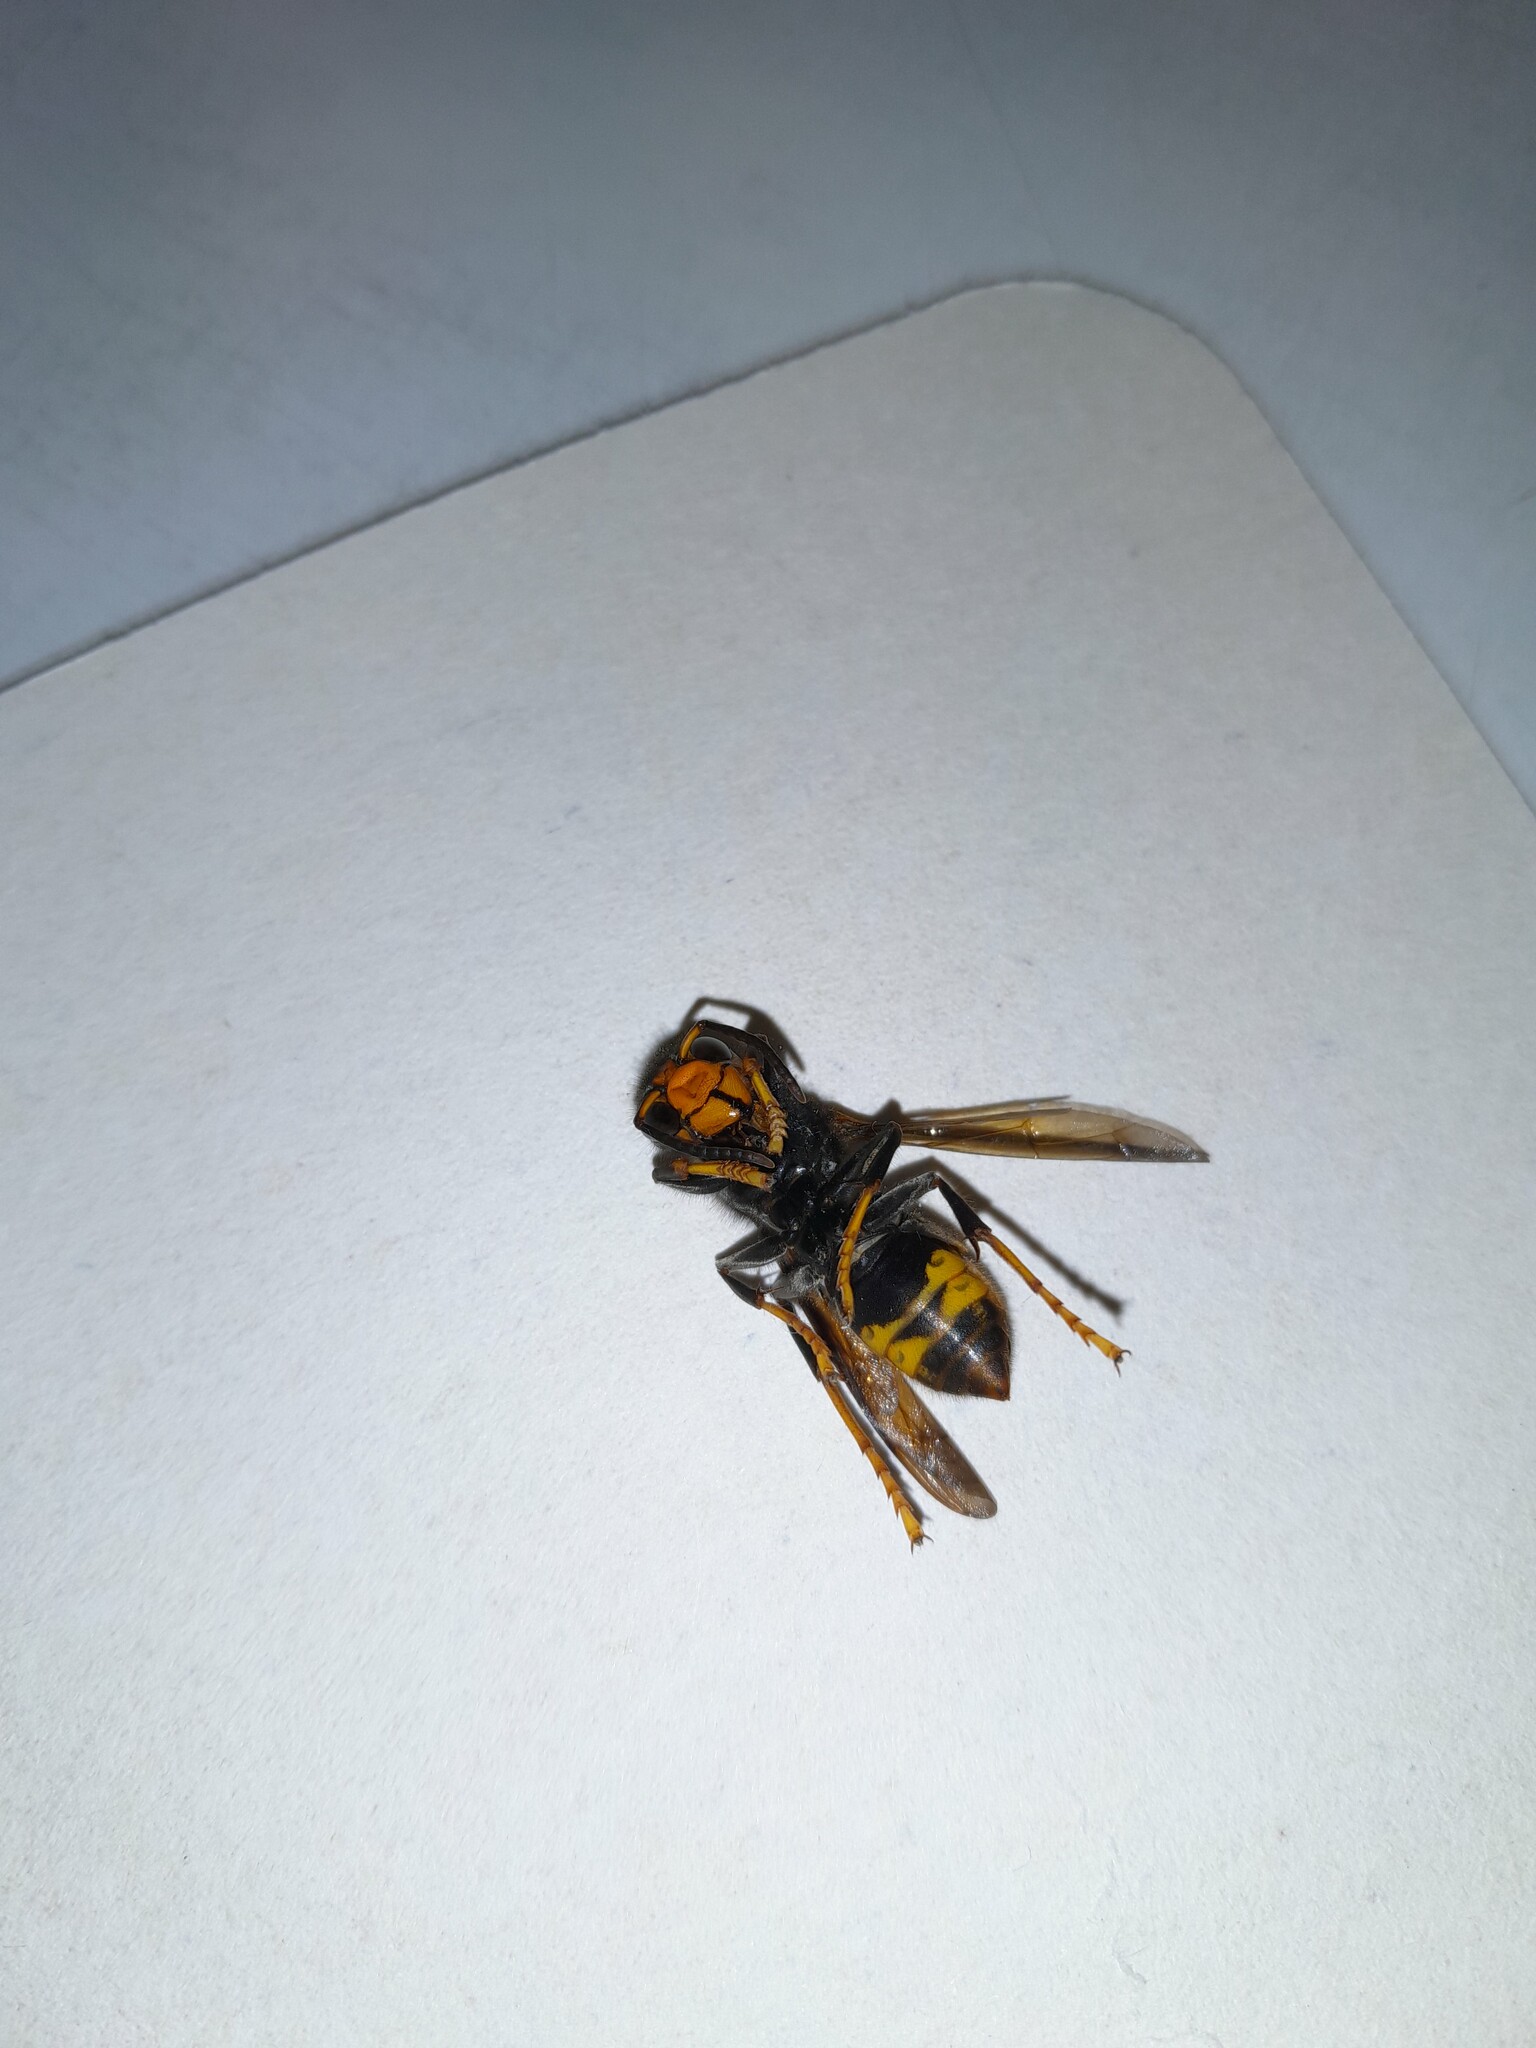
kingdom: Animalia
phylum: Arthropoda
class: Insecta
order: Hymenoptera
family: Vespidae
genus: Vespa
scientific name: Vespa velutina
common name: Asian hornet
